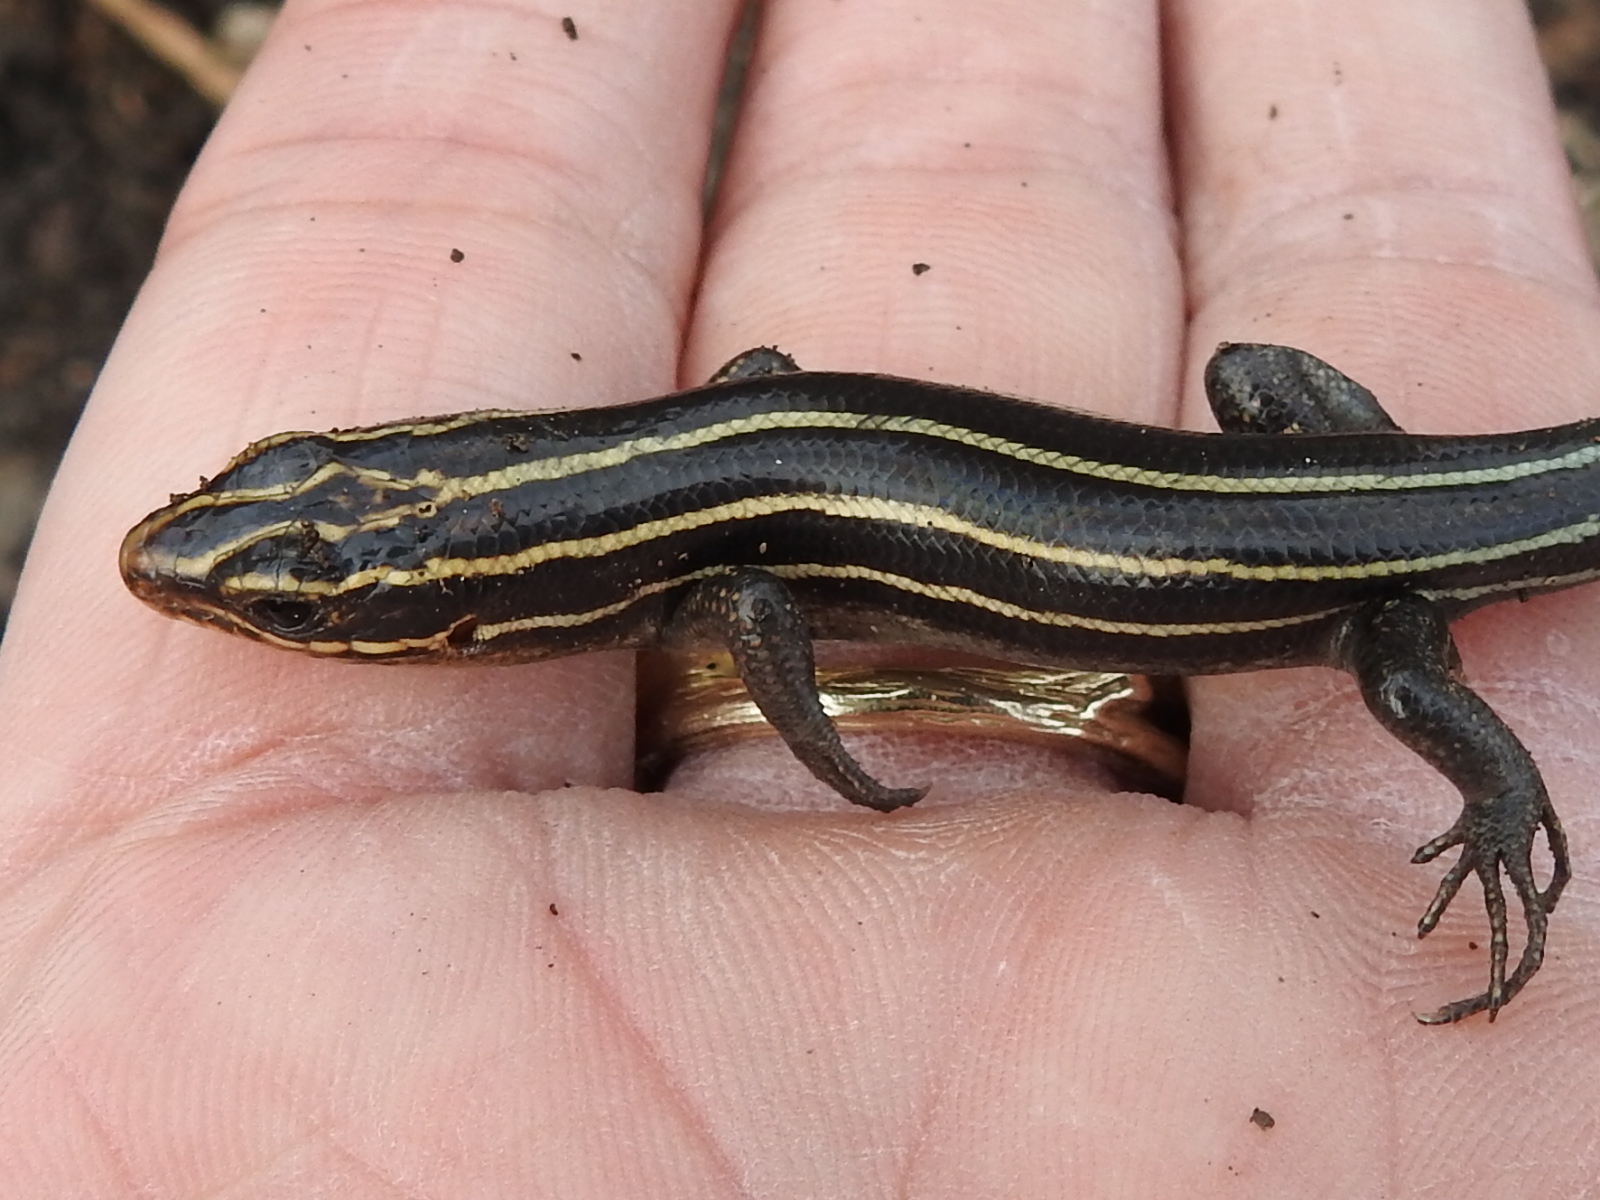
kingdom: Animalia
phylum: Chordata
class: Squamata
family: Scincidae
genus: Plestiodon
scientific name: Plestiodon fasciatus
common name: Five-lined skink
